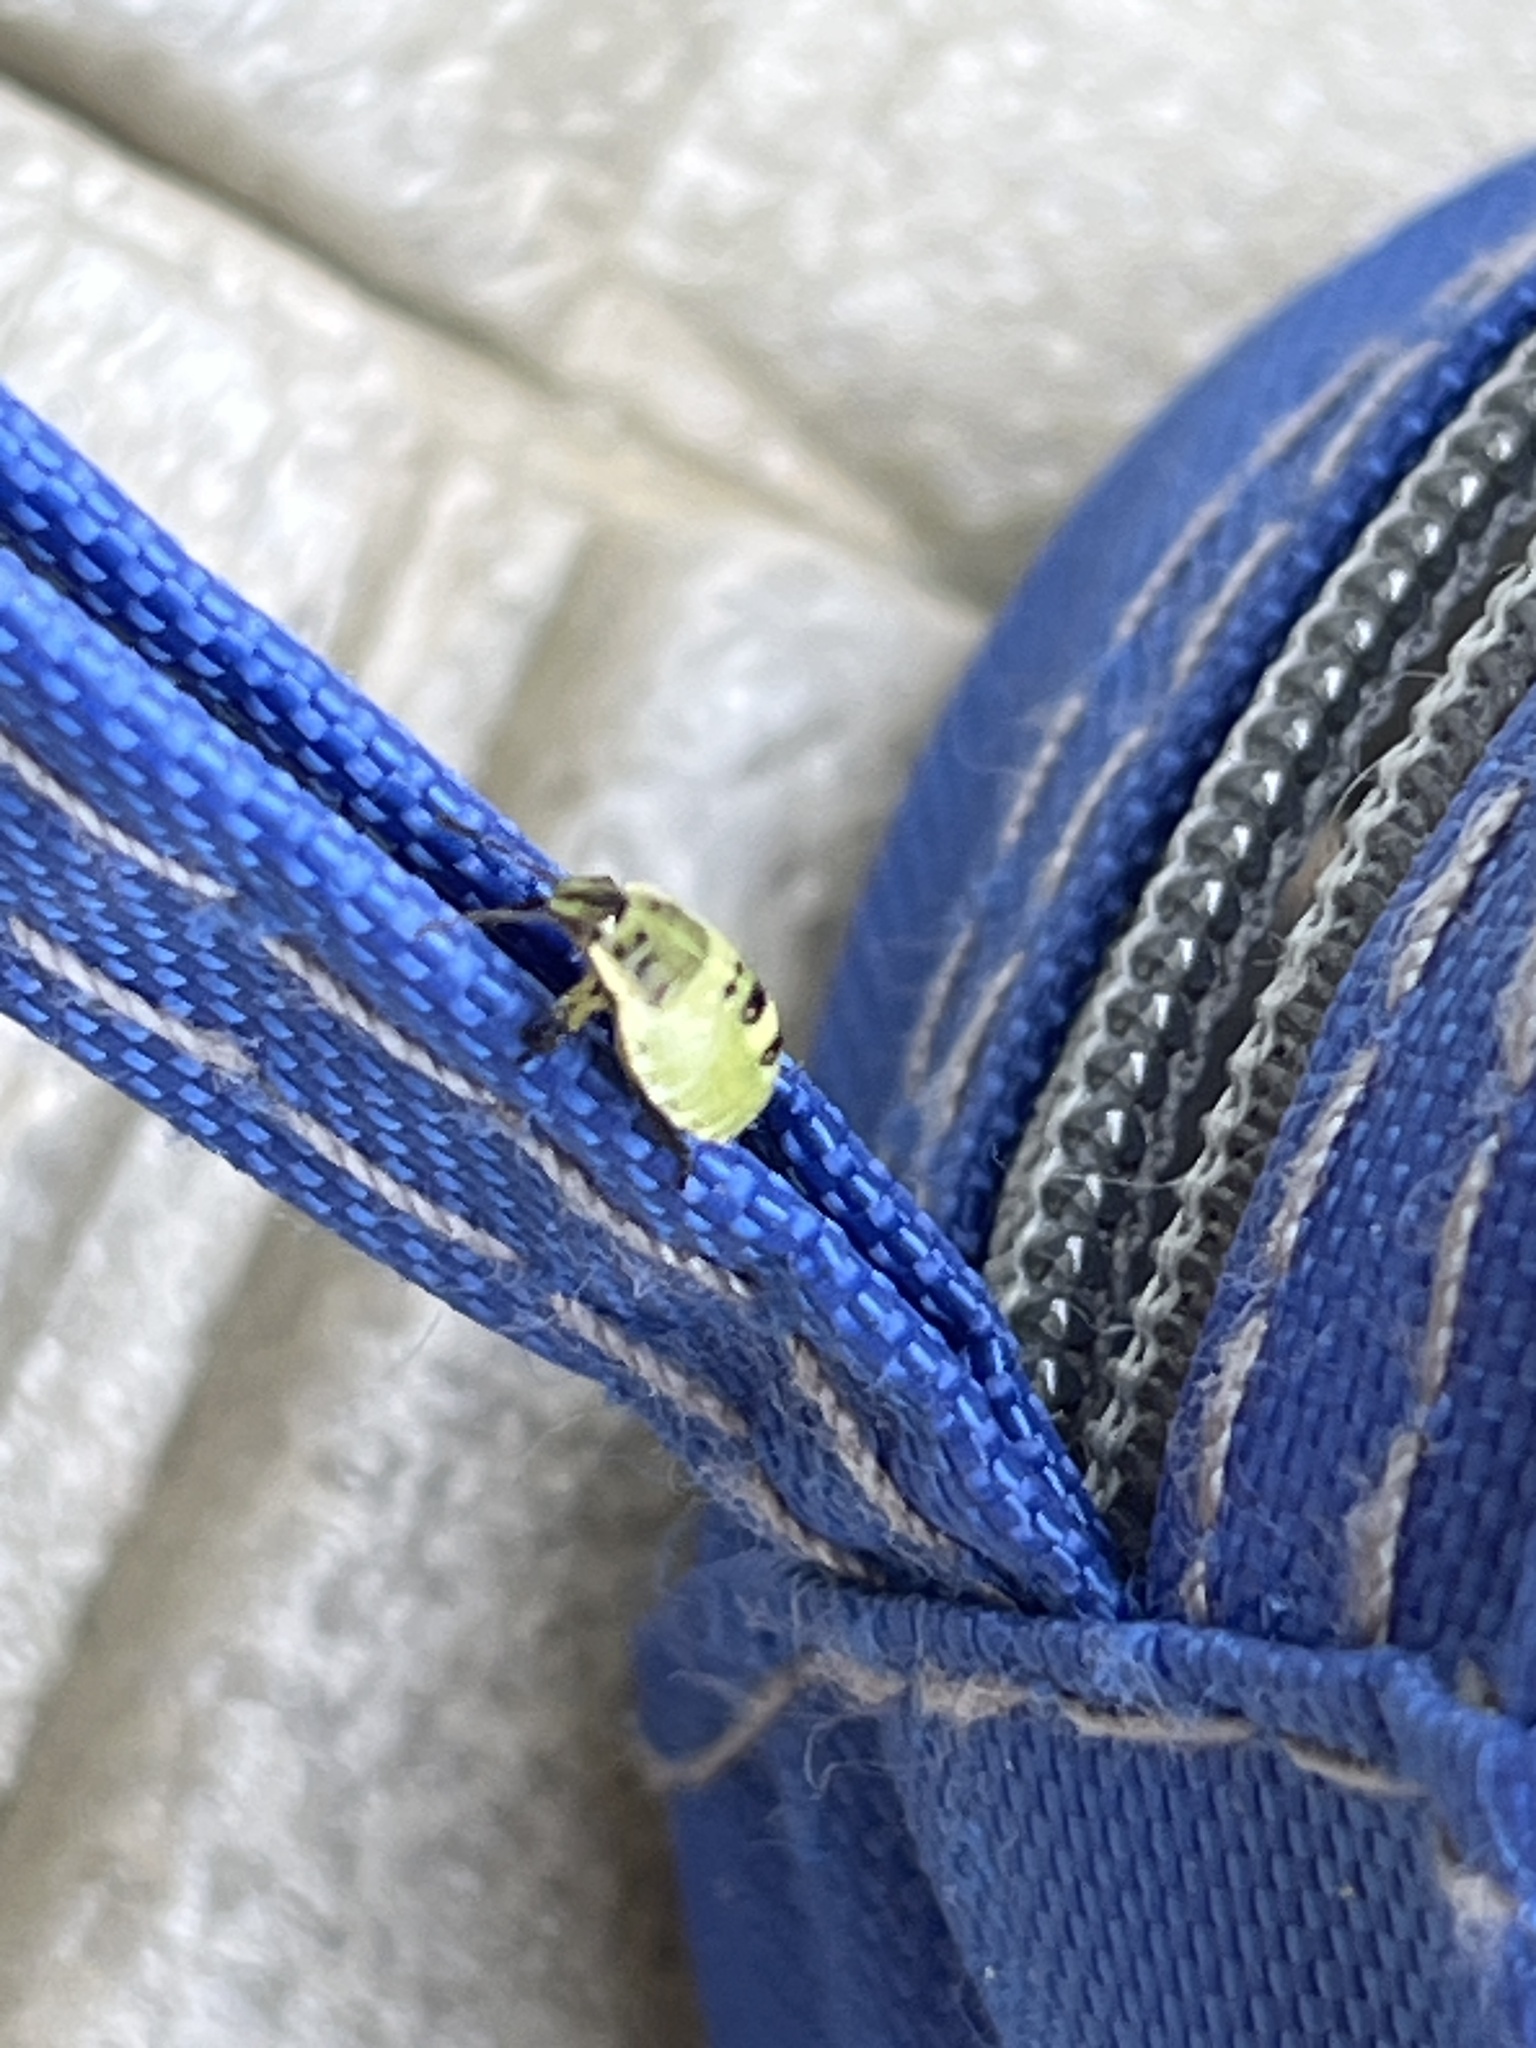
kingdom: Animalia
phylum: Arthropoda
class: Insecta
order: Hemiptera
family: Pentatomidae
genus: Palomena
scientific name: Palomena prasina
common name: Green shieldbug
